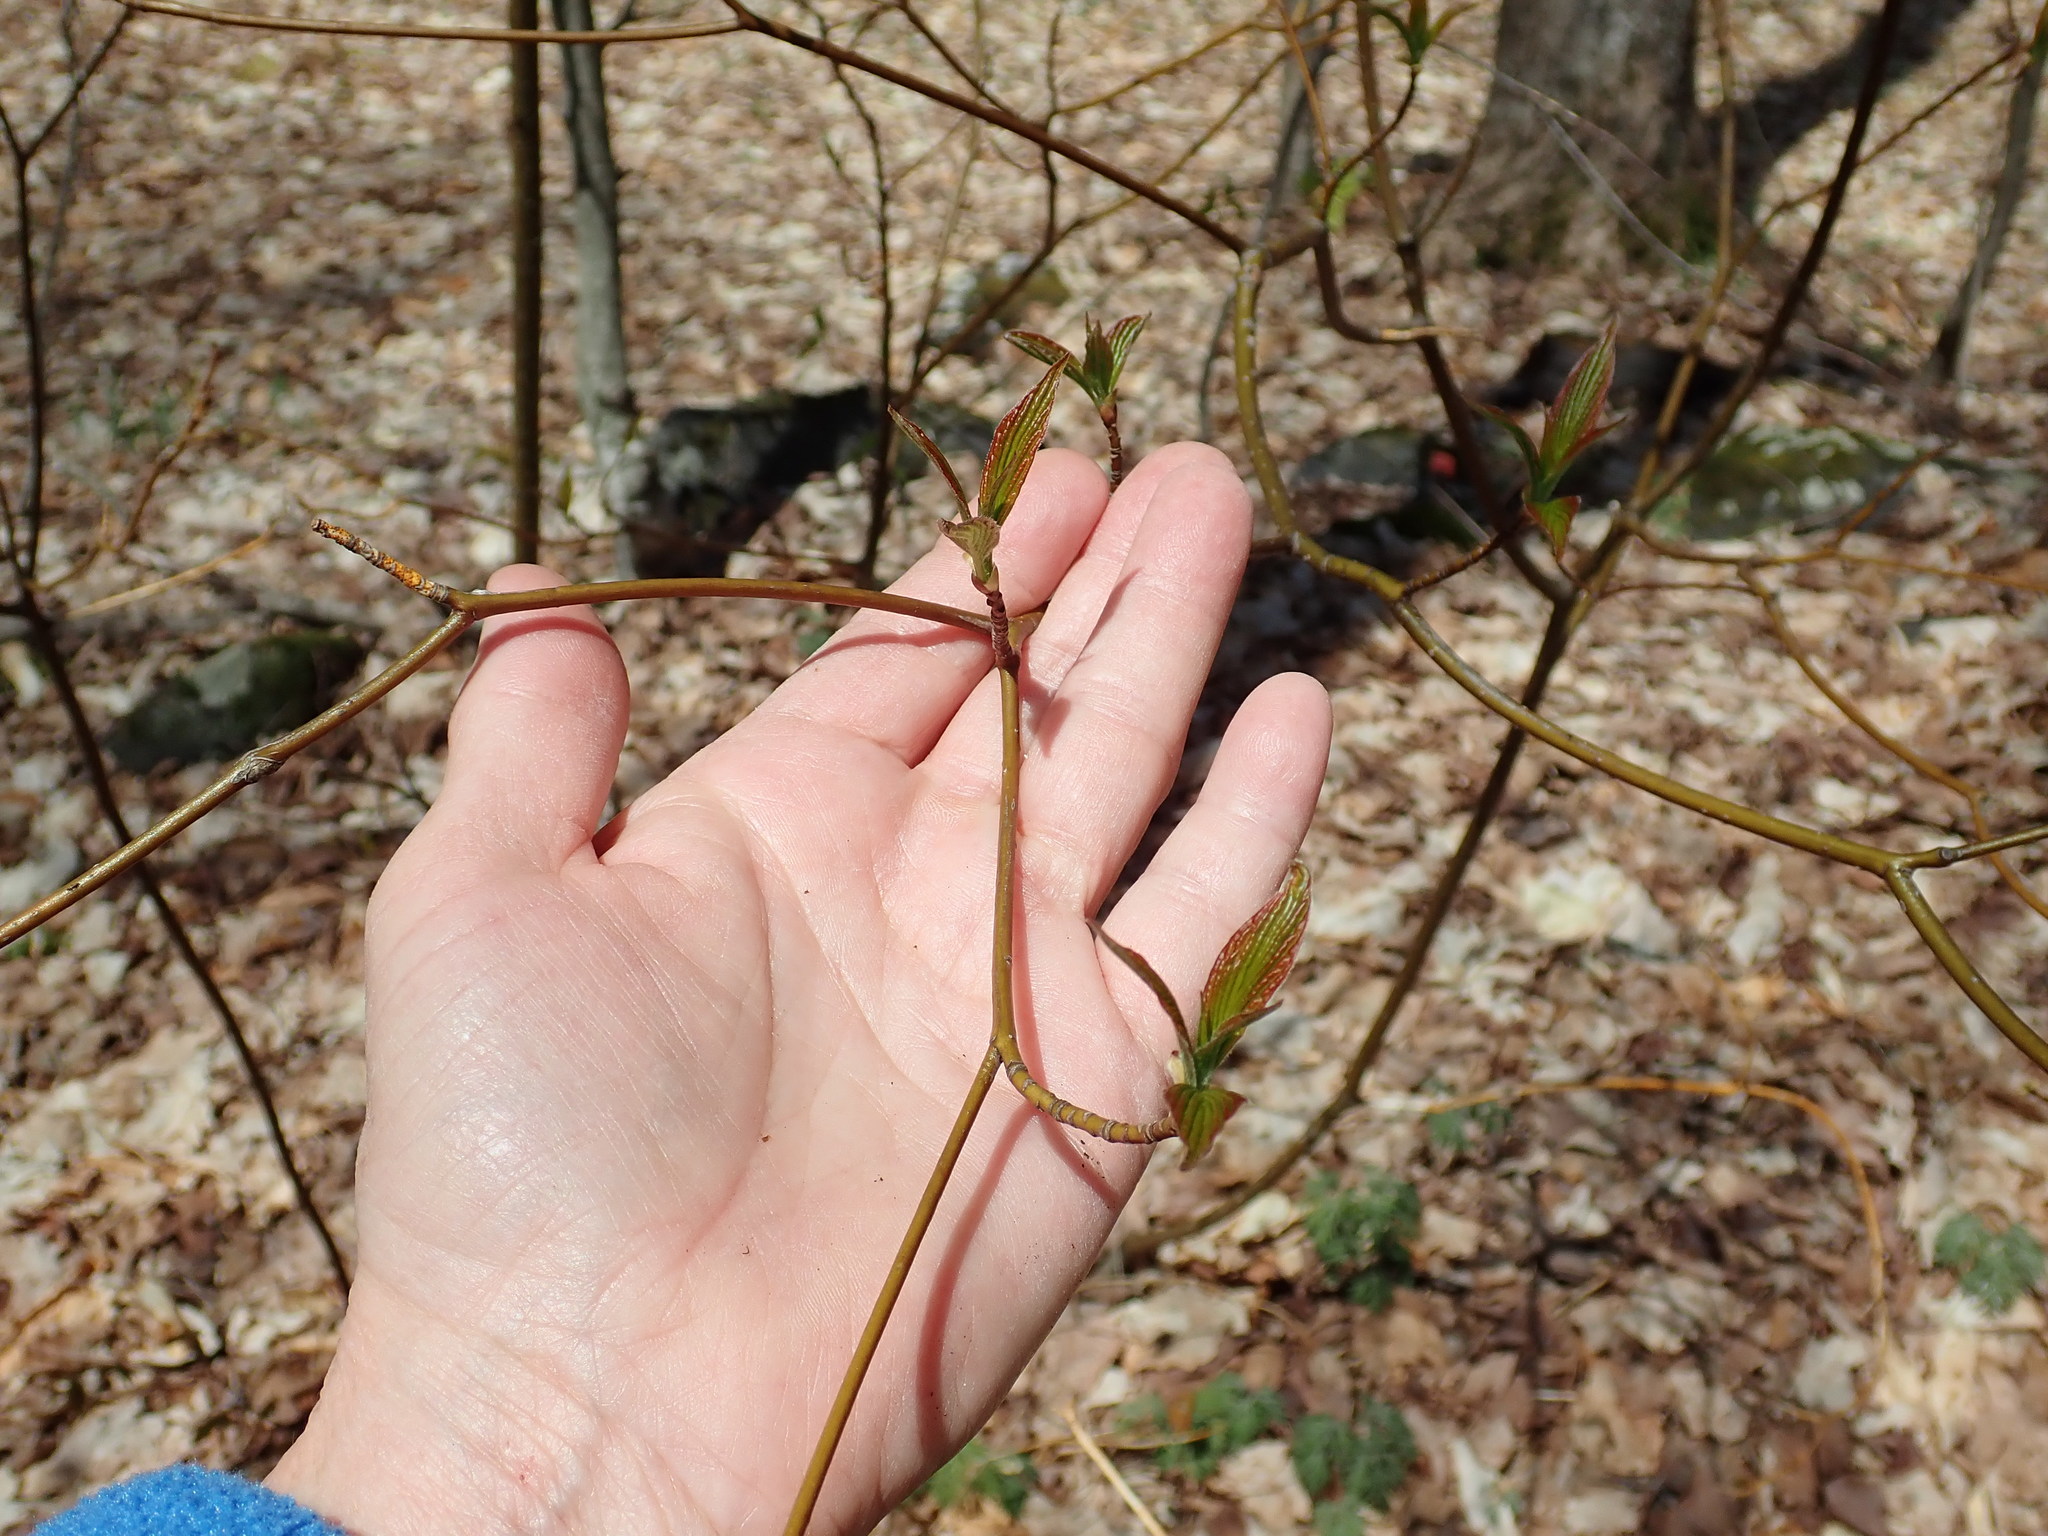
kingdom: Plantae
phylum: Tracheophyta
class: Magnoliopsida
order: Cornales
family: Cornaceae
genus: Cornus
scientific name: Cornus alternifolia
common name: Pagoda dogwood
